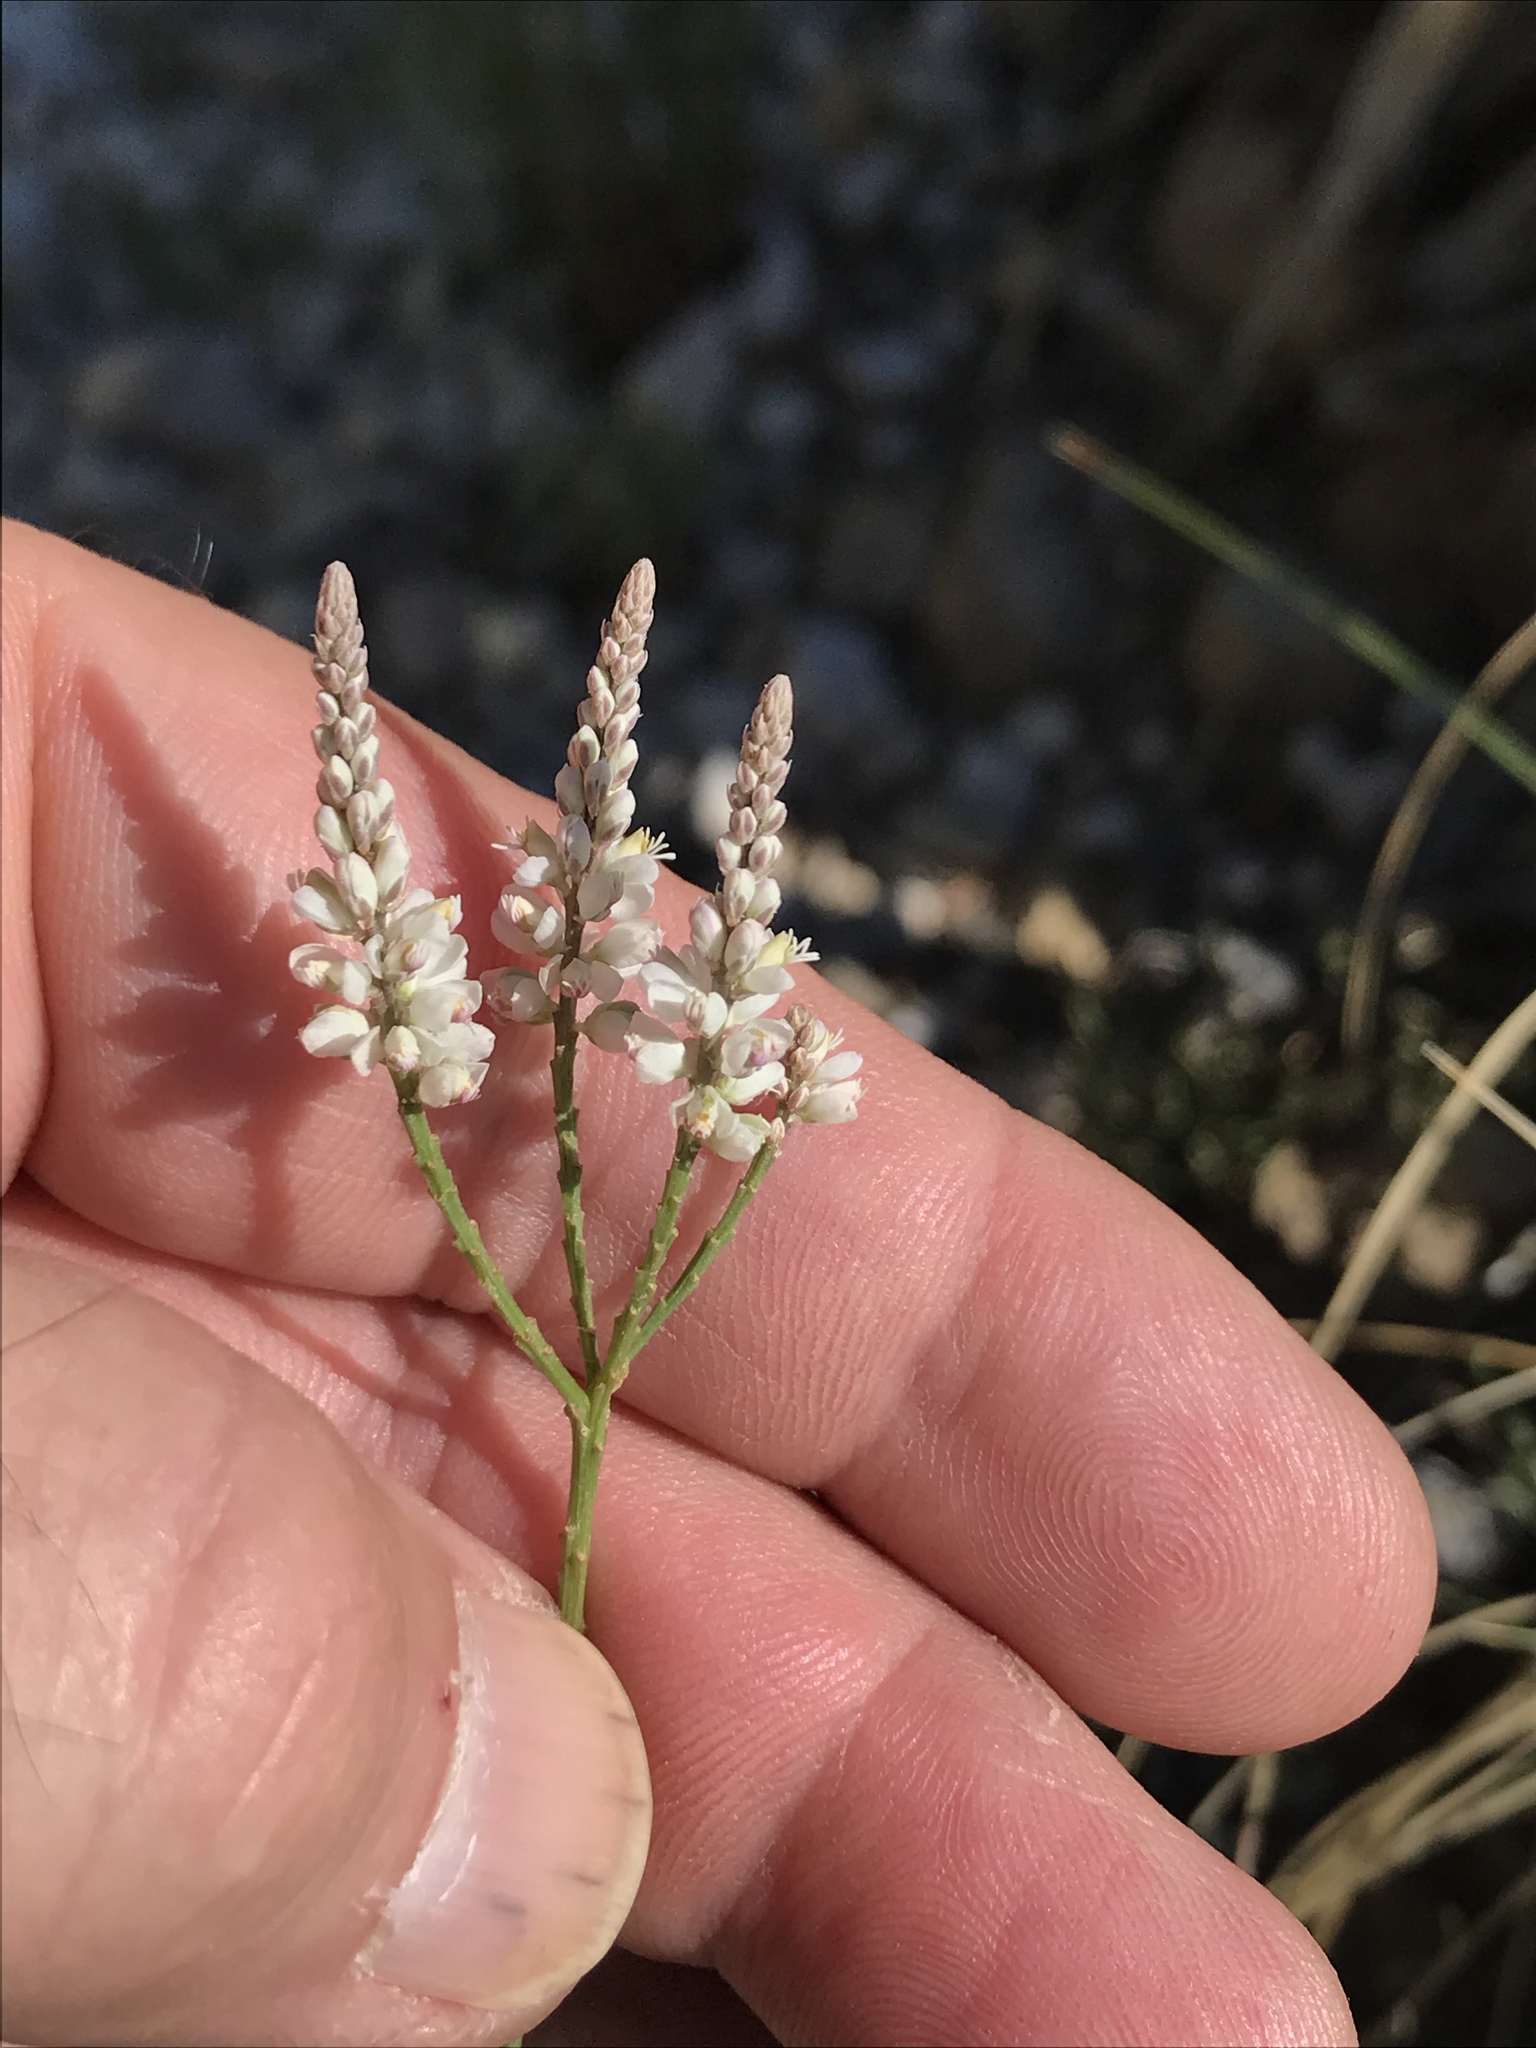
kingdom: Plantae
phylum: Tracheophyta
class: Magnoliopsida
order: Fabales
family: Polygalaceae
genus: Polygala
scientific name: Polygala alba
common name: White milkwort
